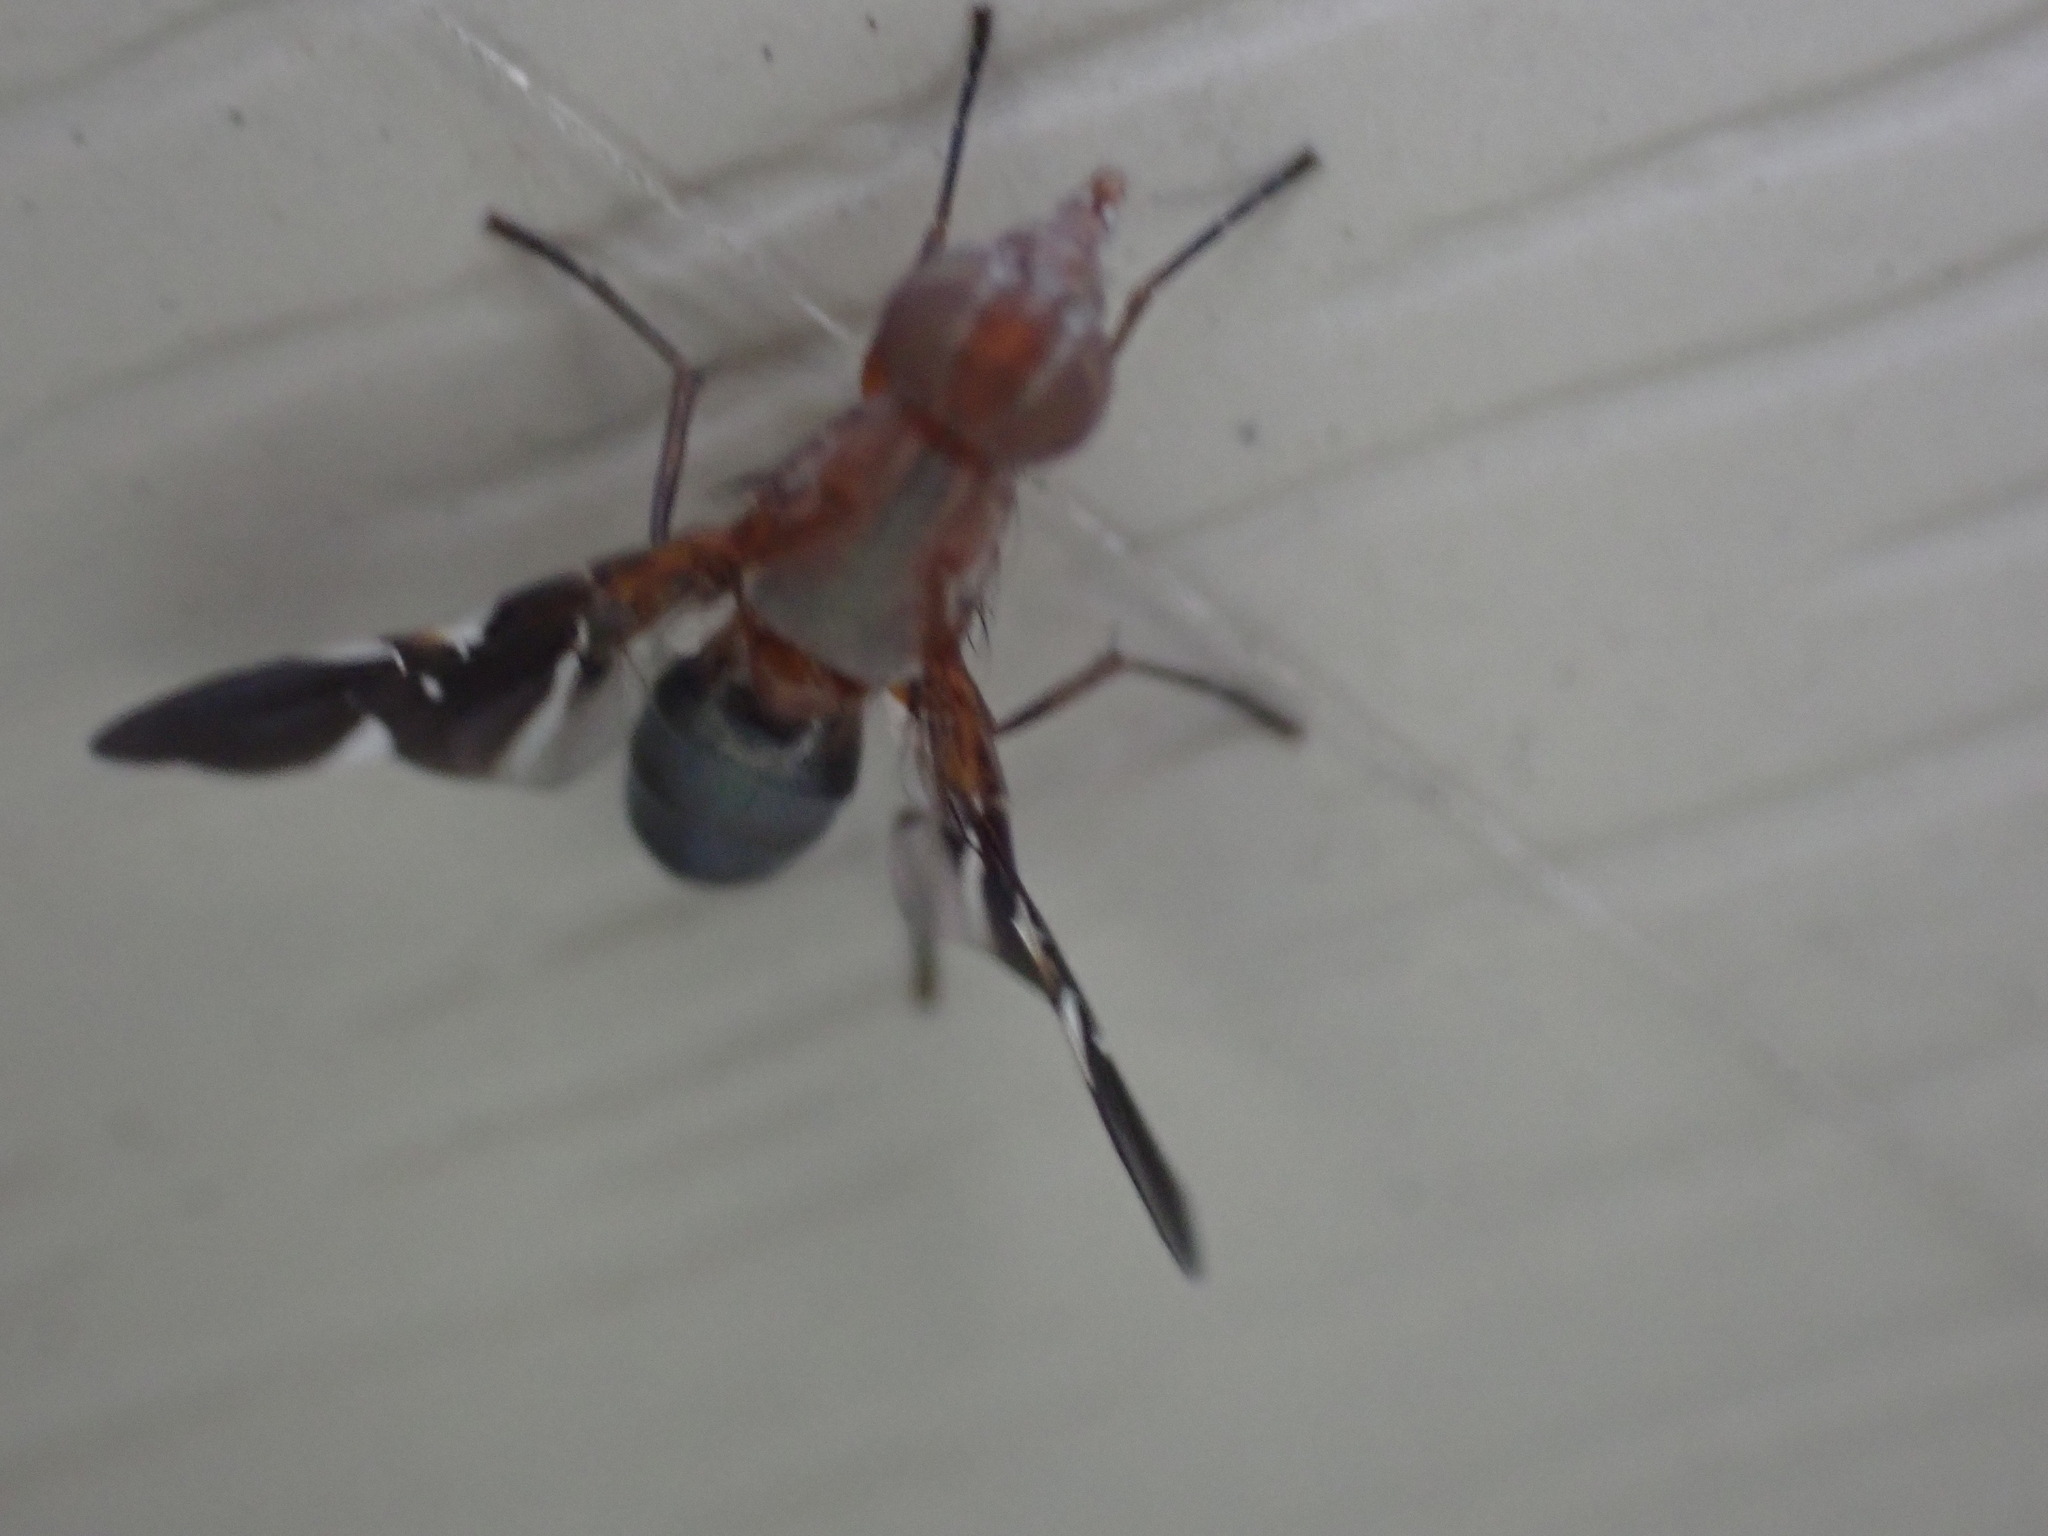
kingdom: Animalia
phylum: Arthropoda
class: Insecta
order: Diptera
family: Ulidiidae
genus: Delphinia
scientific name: Delphinia picta
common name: Common picture-winged fly
